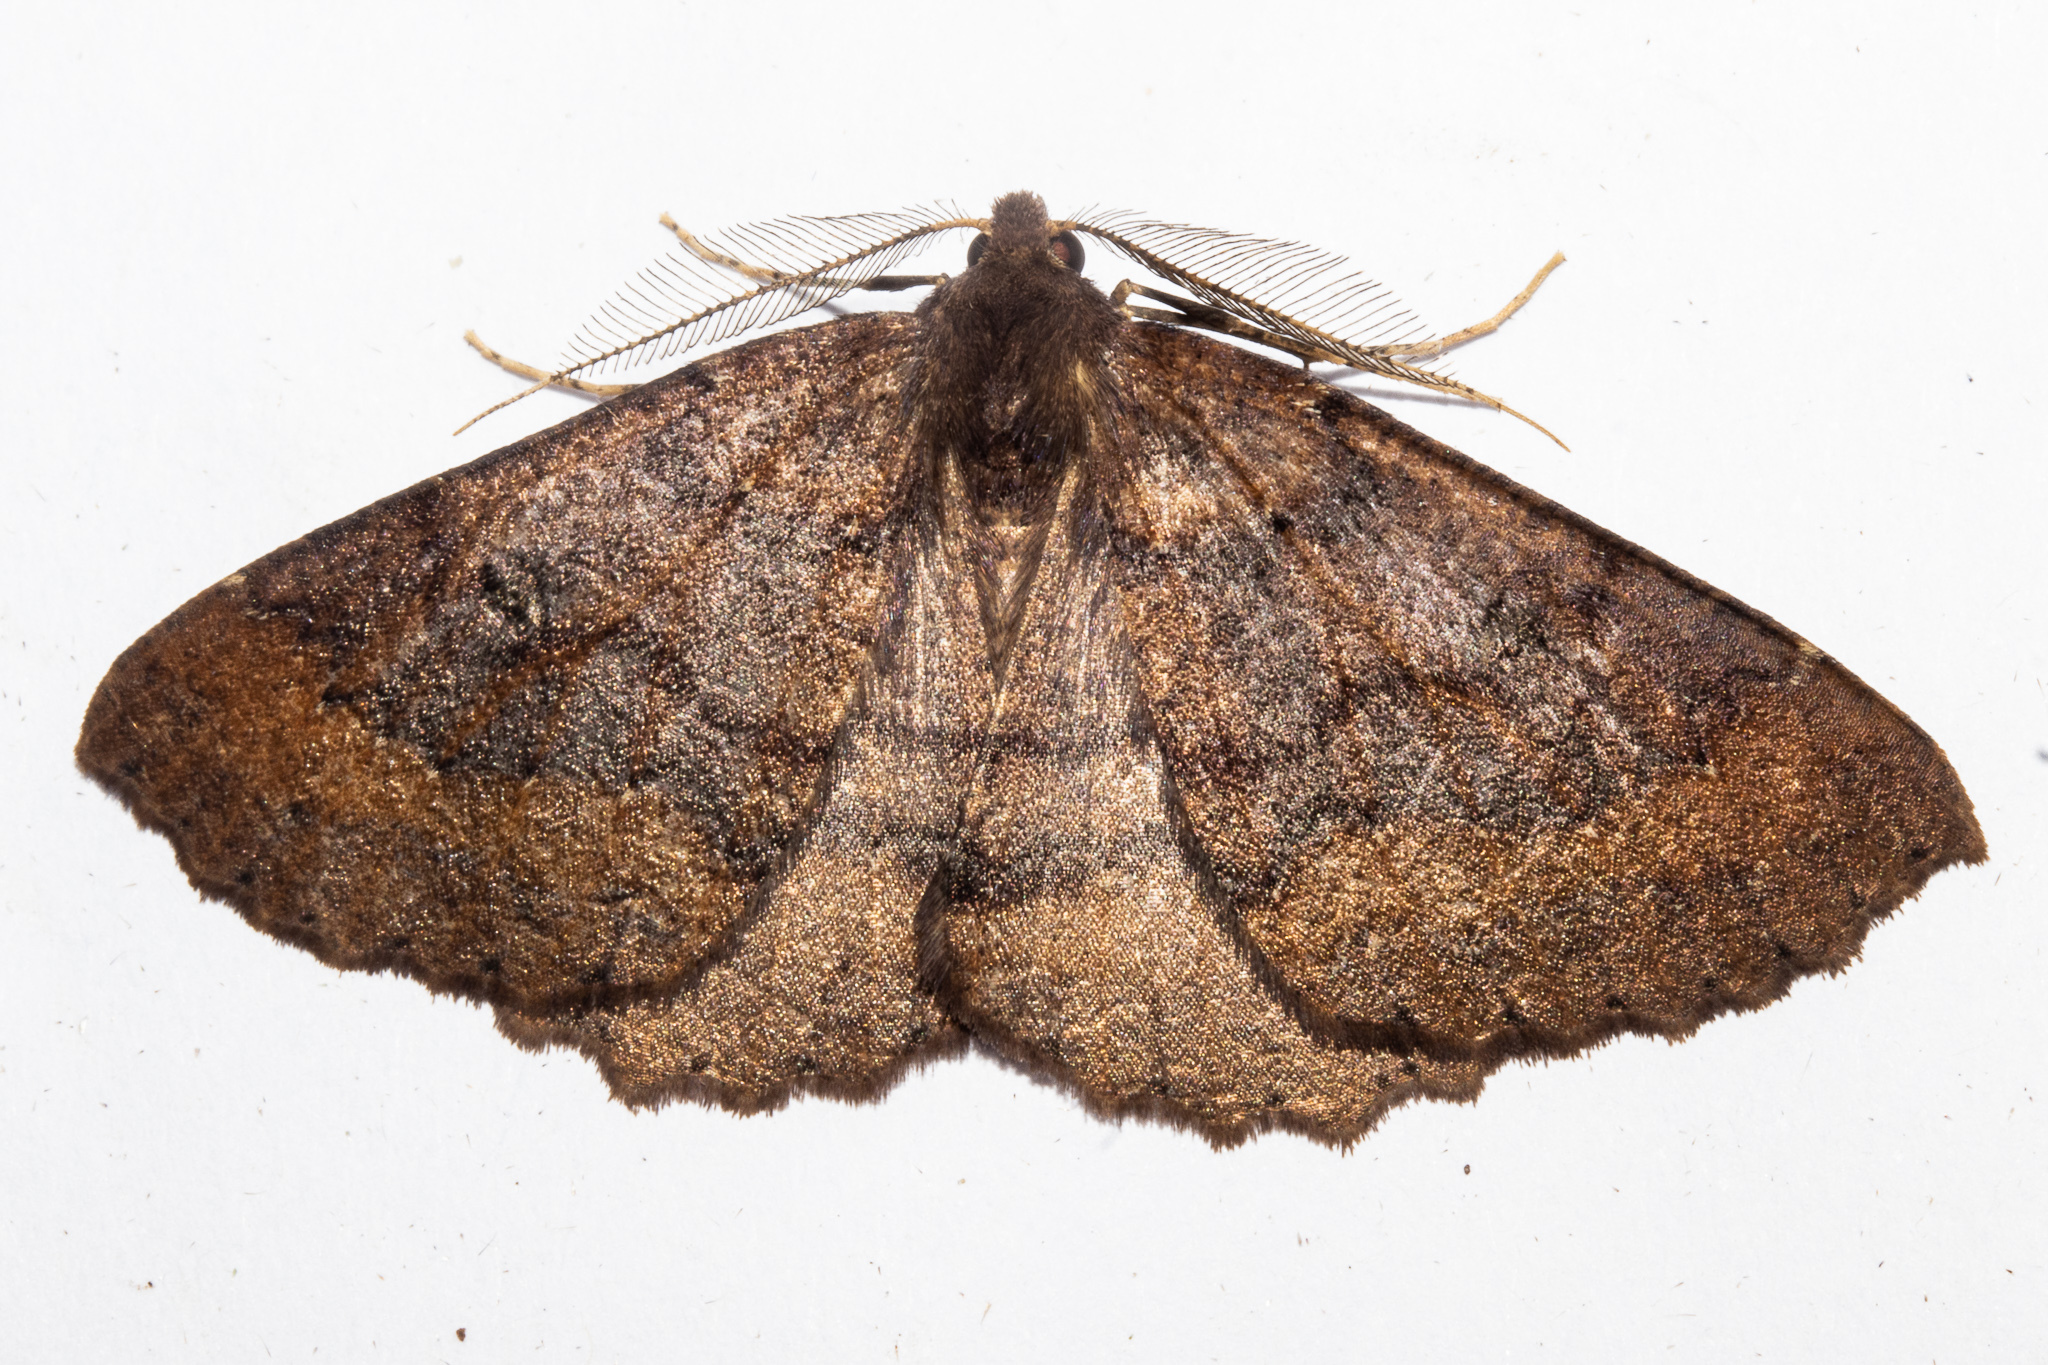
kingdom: Animalia
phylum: Arthropoda
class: Insecta
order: Lepidoptera
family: Geometridae
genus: Cleora
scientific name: Cleora scriptaria
